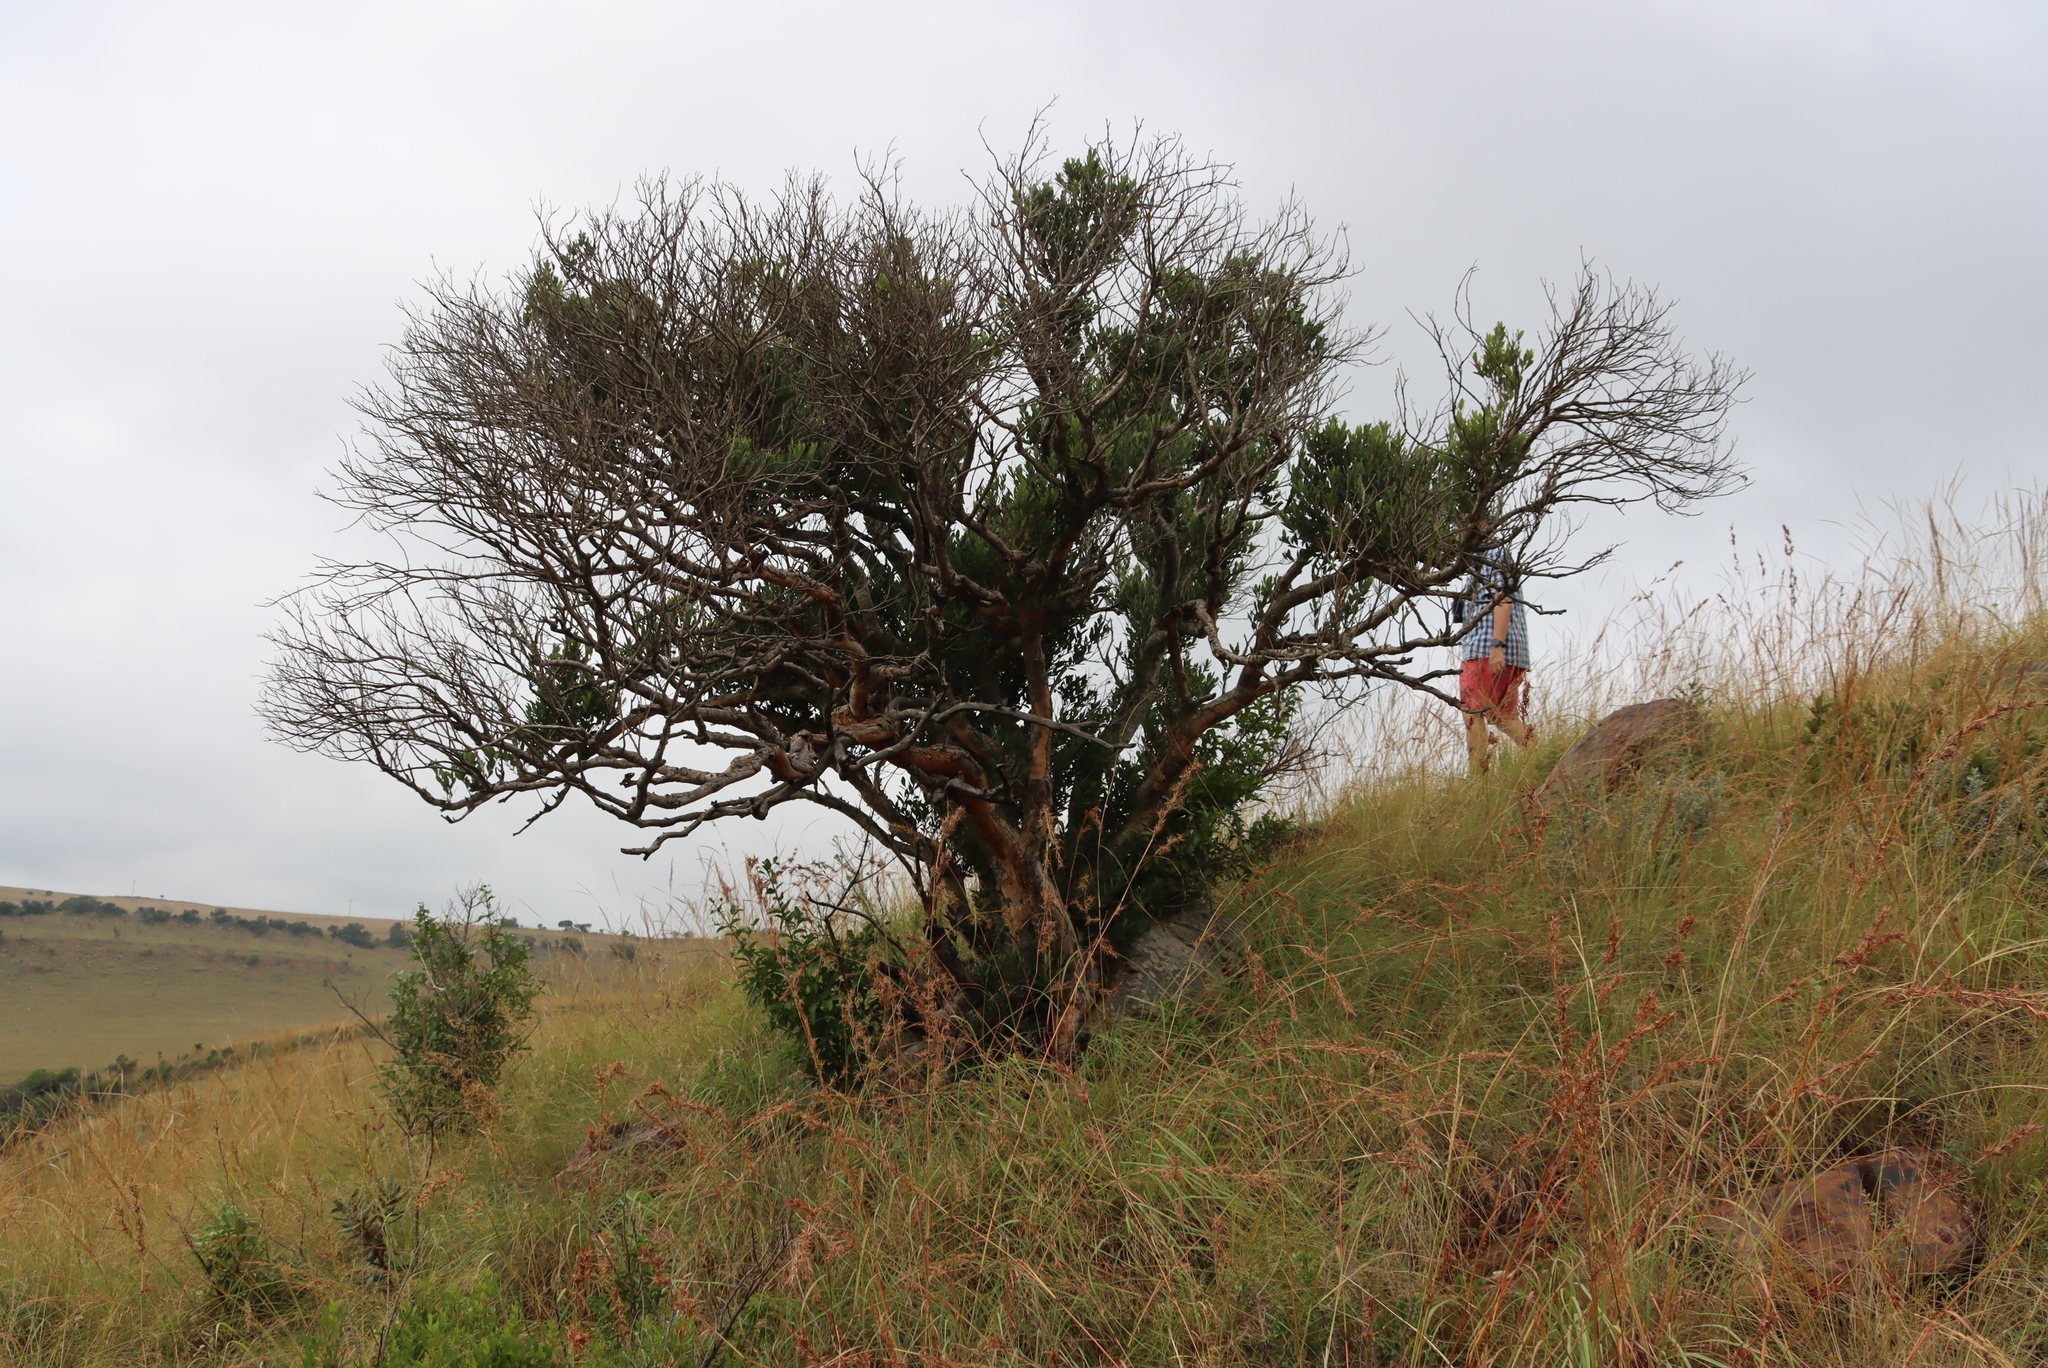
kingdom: Plantae
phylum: Tracheophyta
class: Magnoliopsida
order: Myrtales
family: Myrtaceae
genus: Syzygium
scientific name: Syzygium legatii
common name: Mountain waterberry
